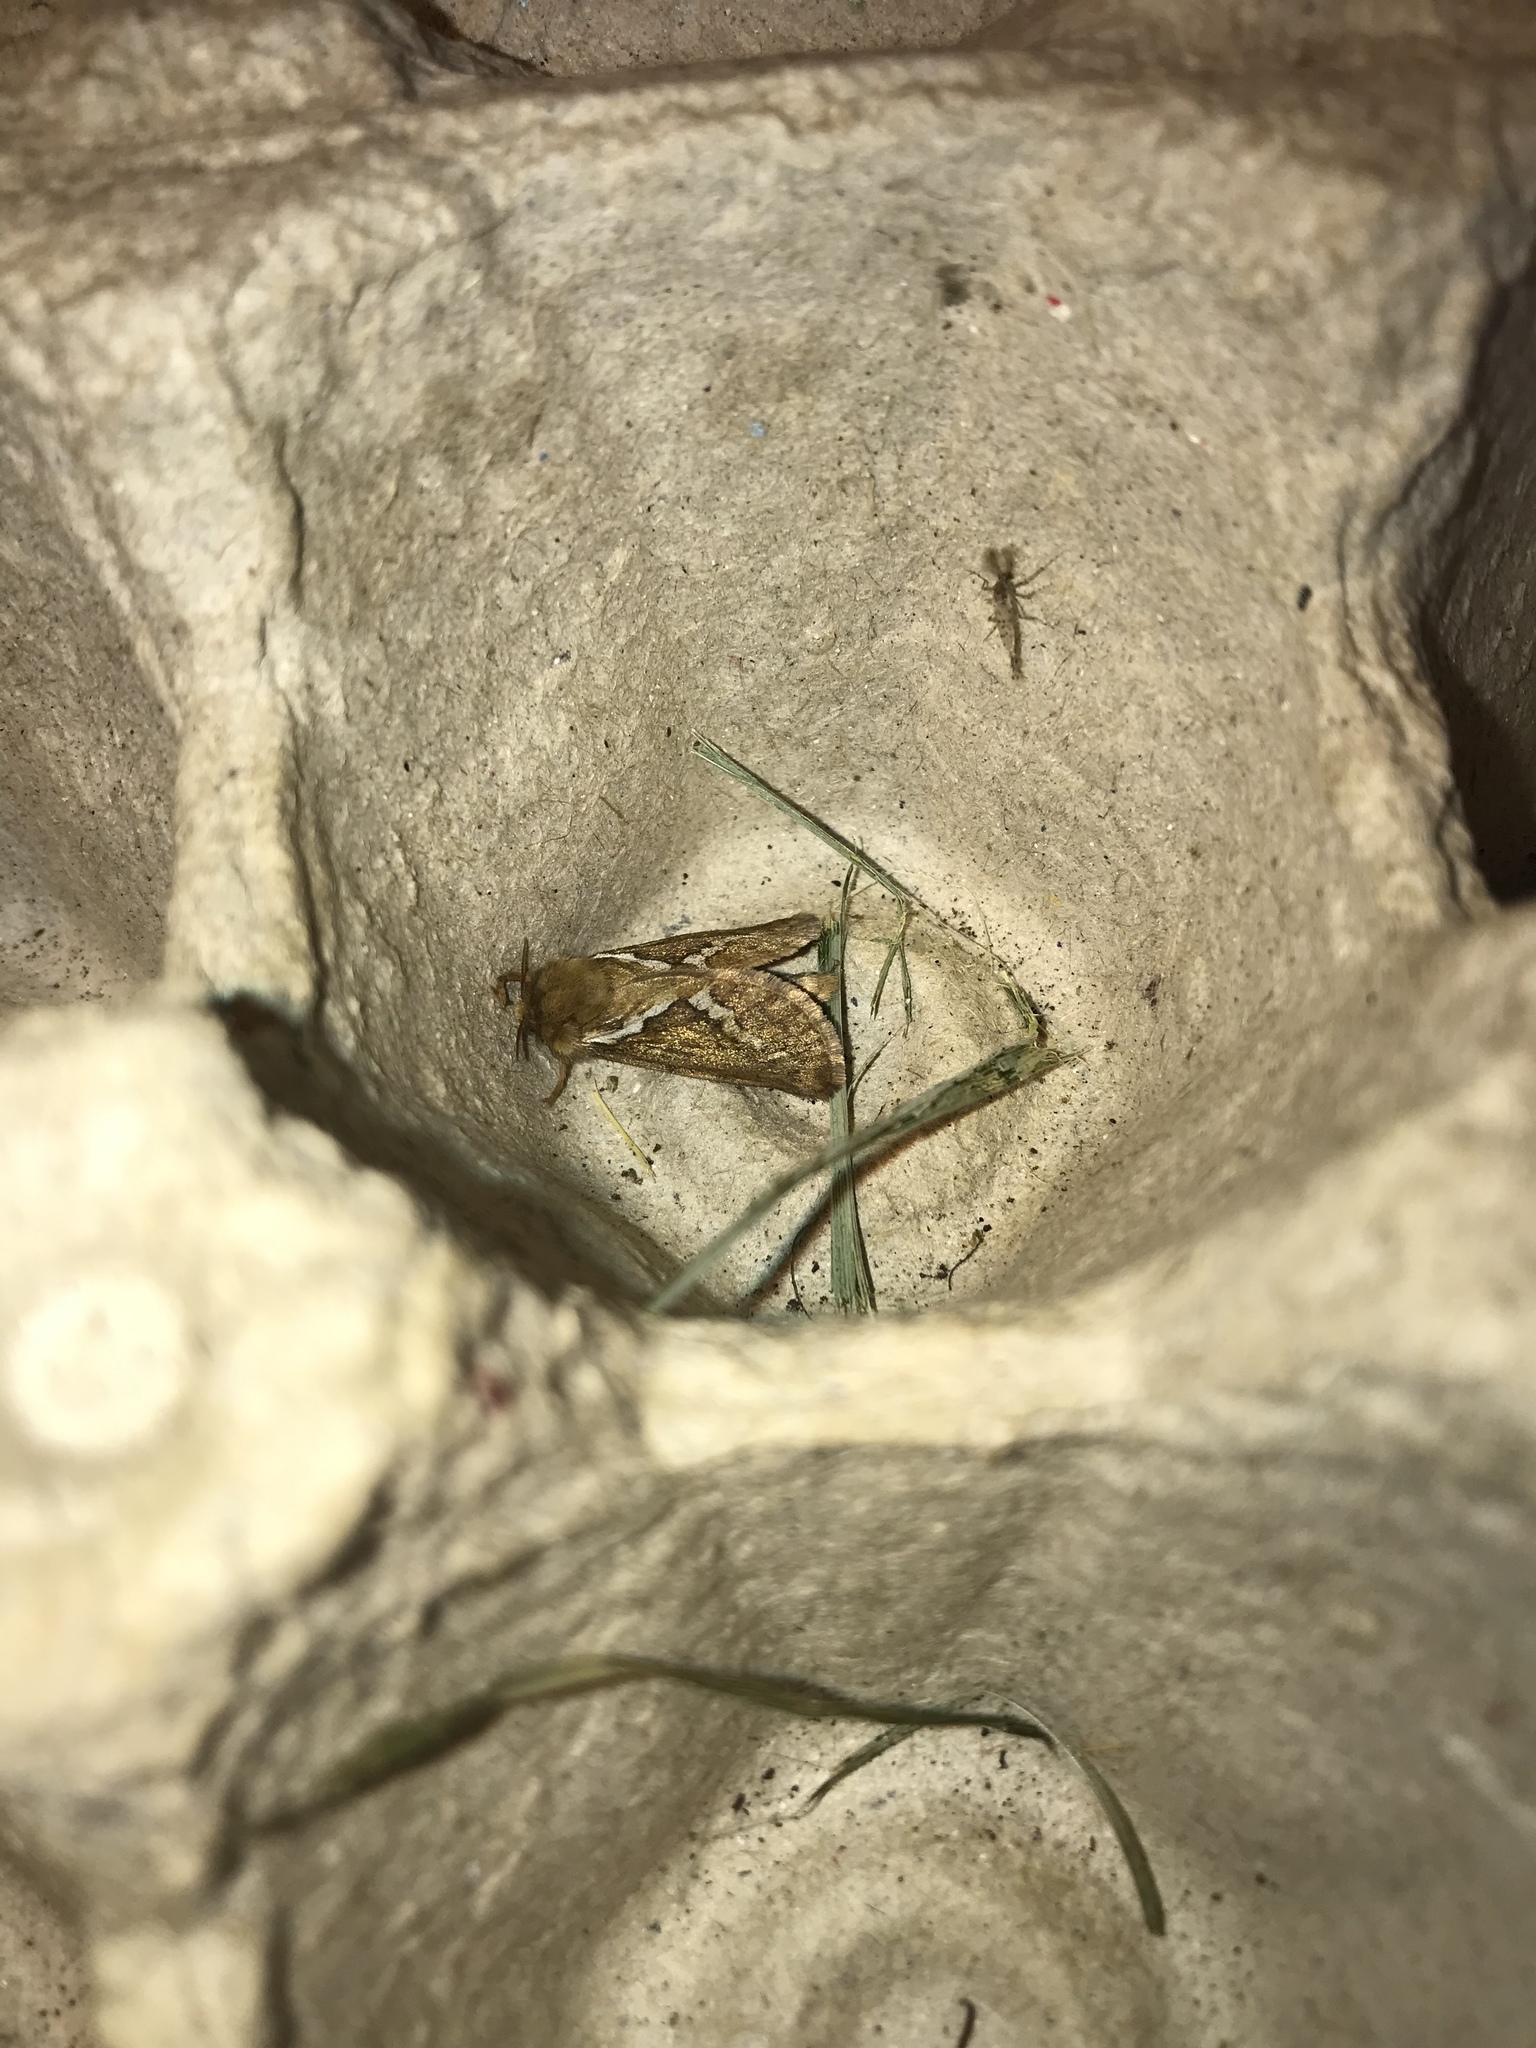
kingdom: Animalia
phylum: Arthropoda
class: Insecta
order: Lepidoptera
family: Hepialidae
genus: Korscheltellus
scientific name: Korscheltellus lupulina
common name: Common swift
